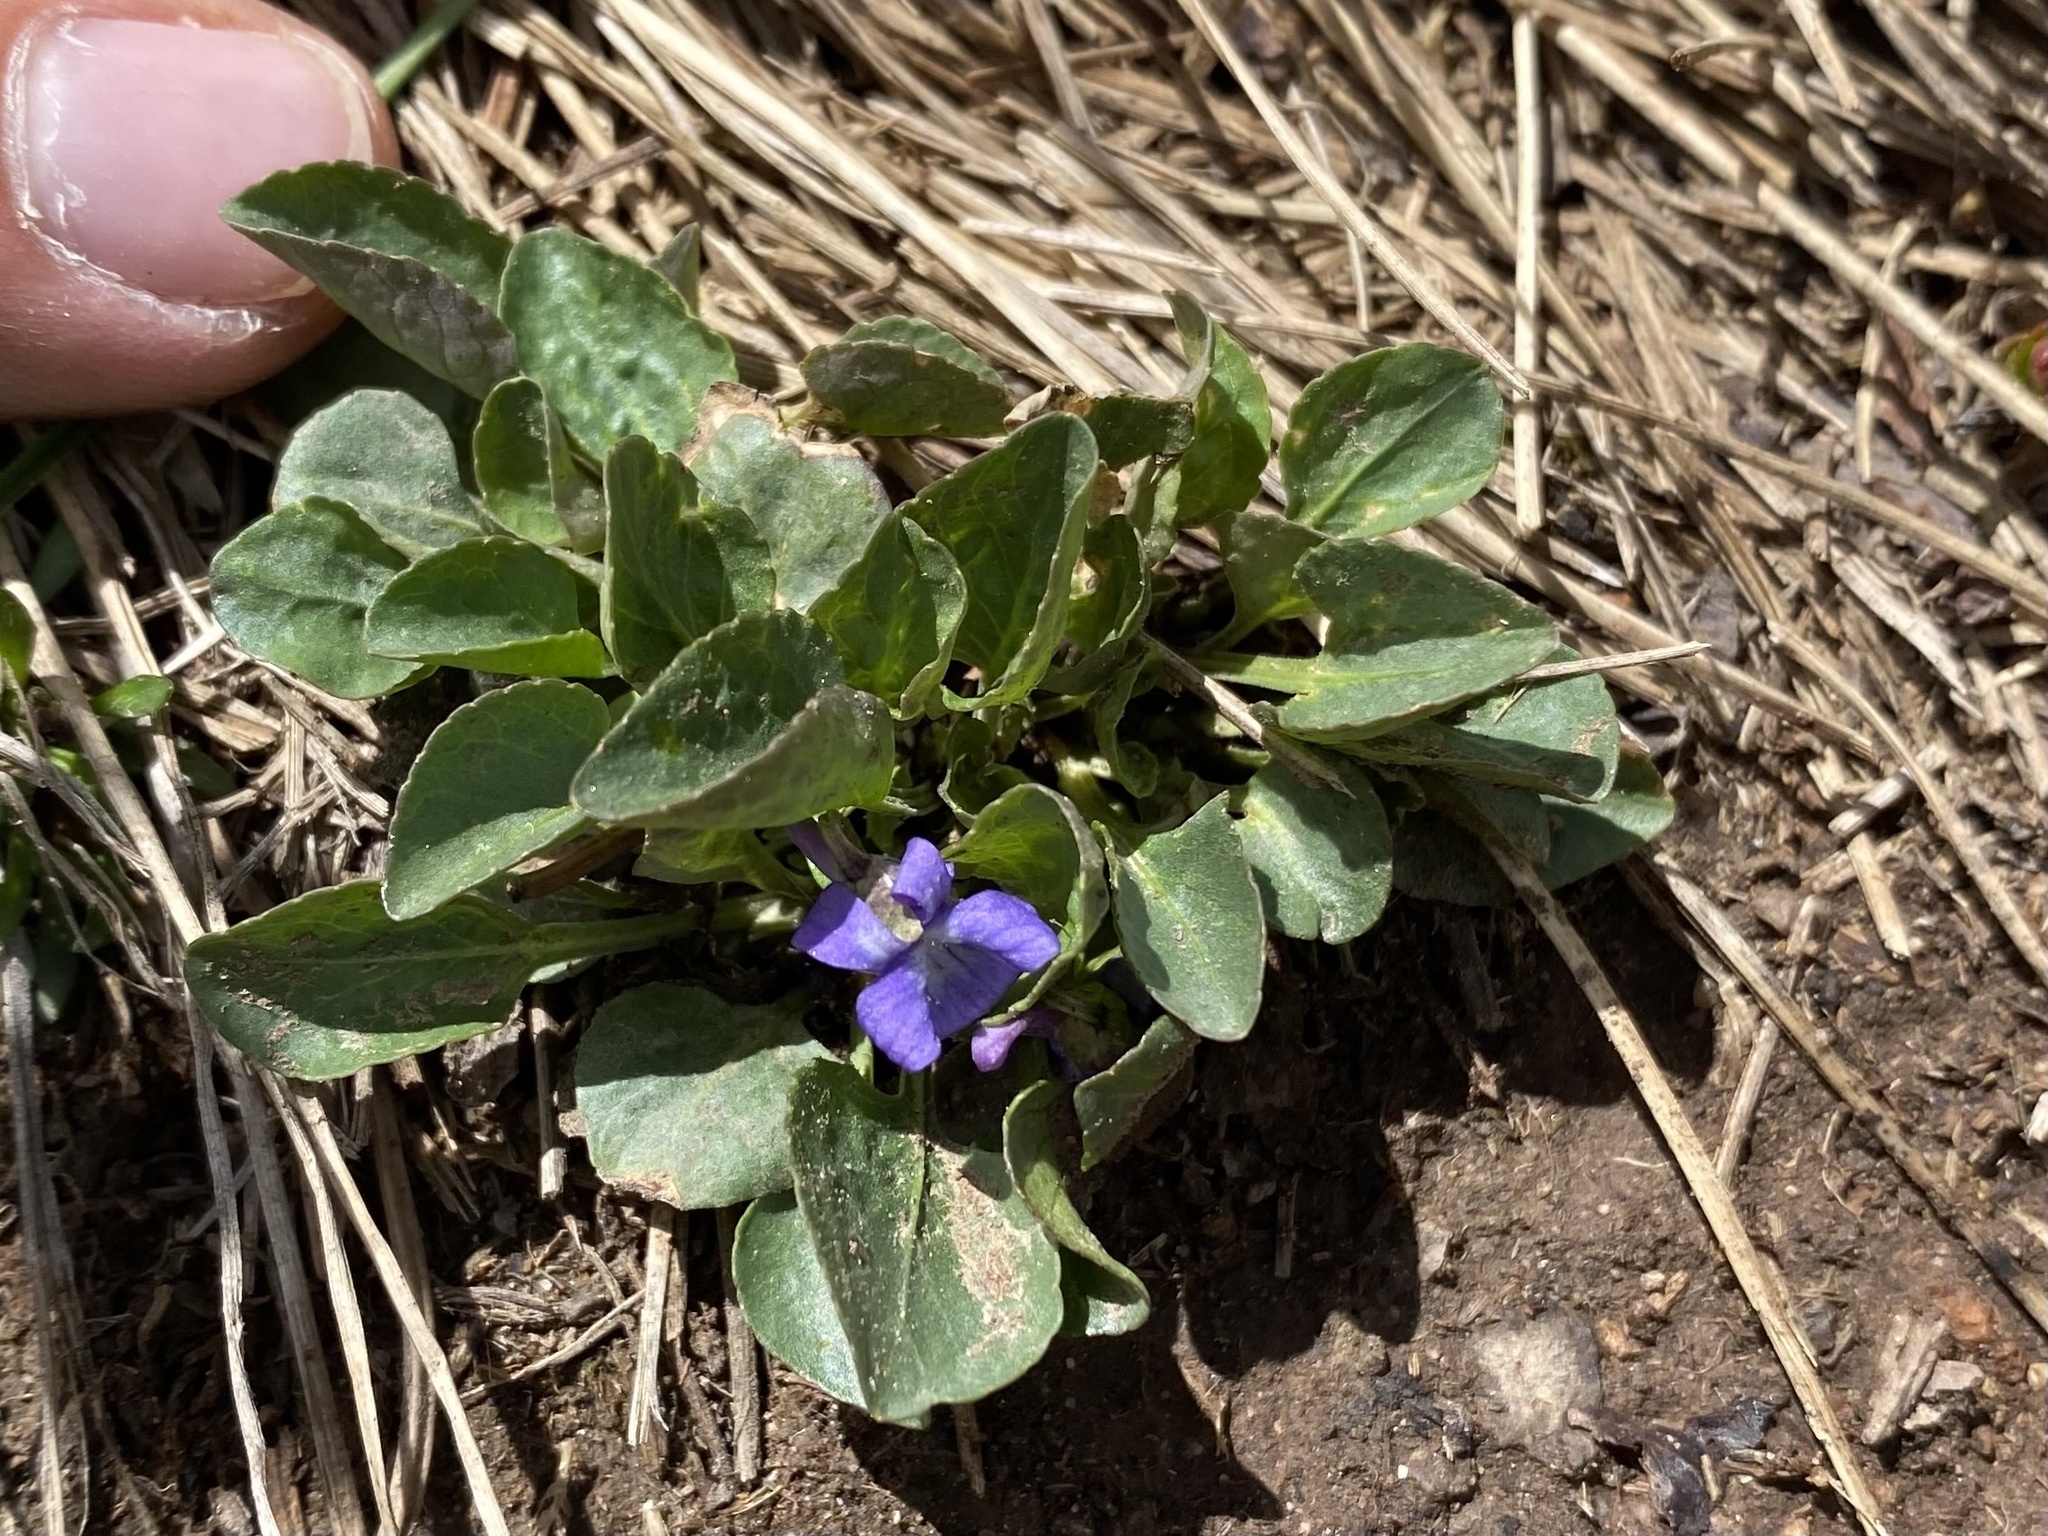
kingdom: Plantae
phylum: Tracheophyta
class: Magnoliopsida
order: Malpighiales
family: Violaceae
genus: Viola
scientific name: Viola adunca
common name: Sand violet
